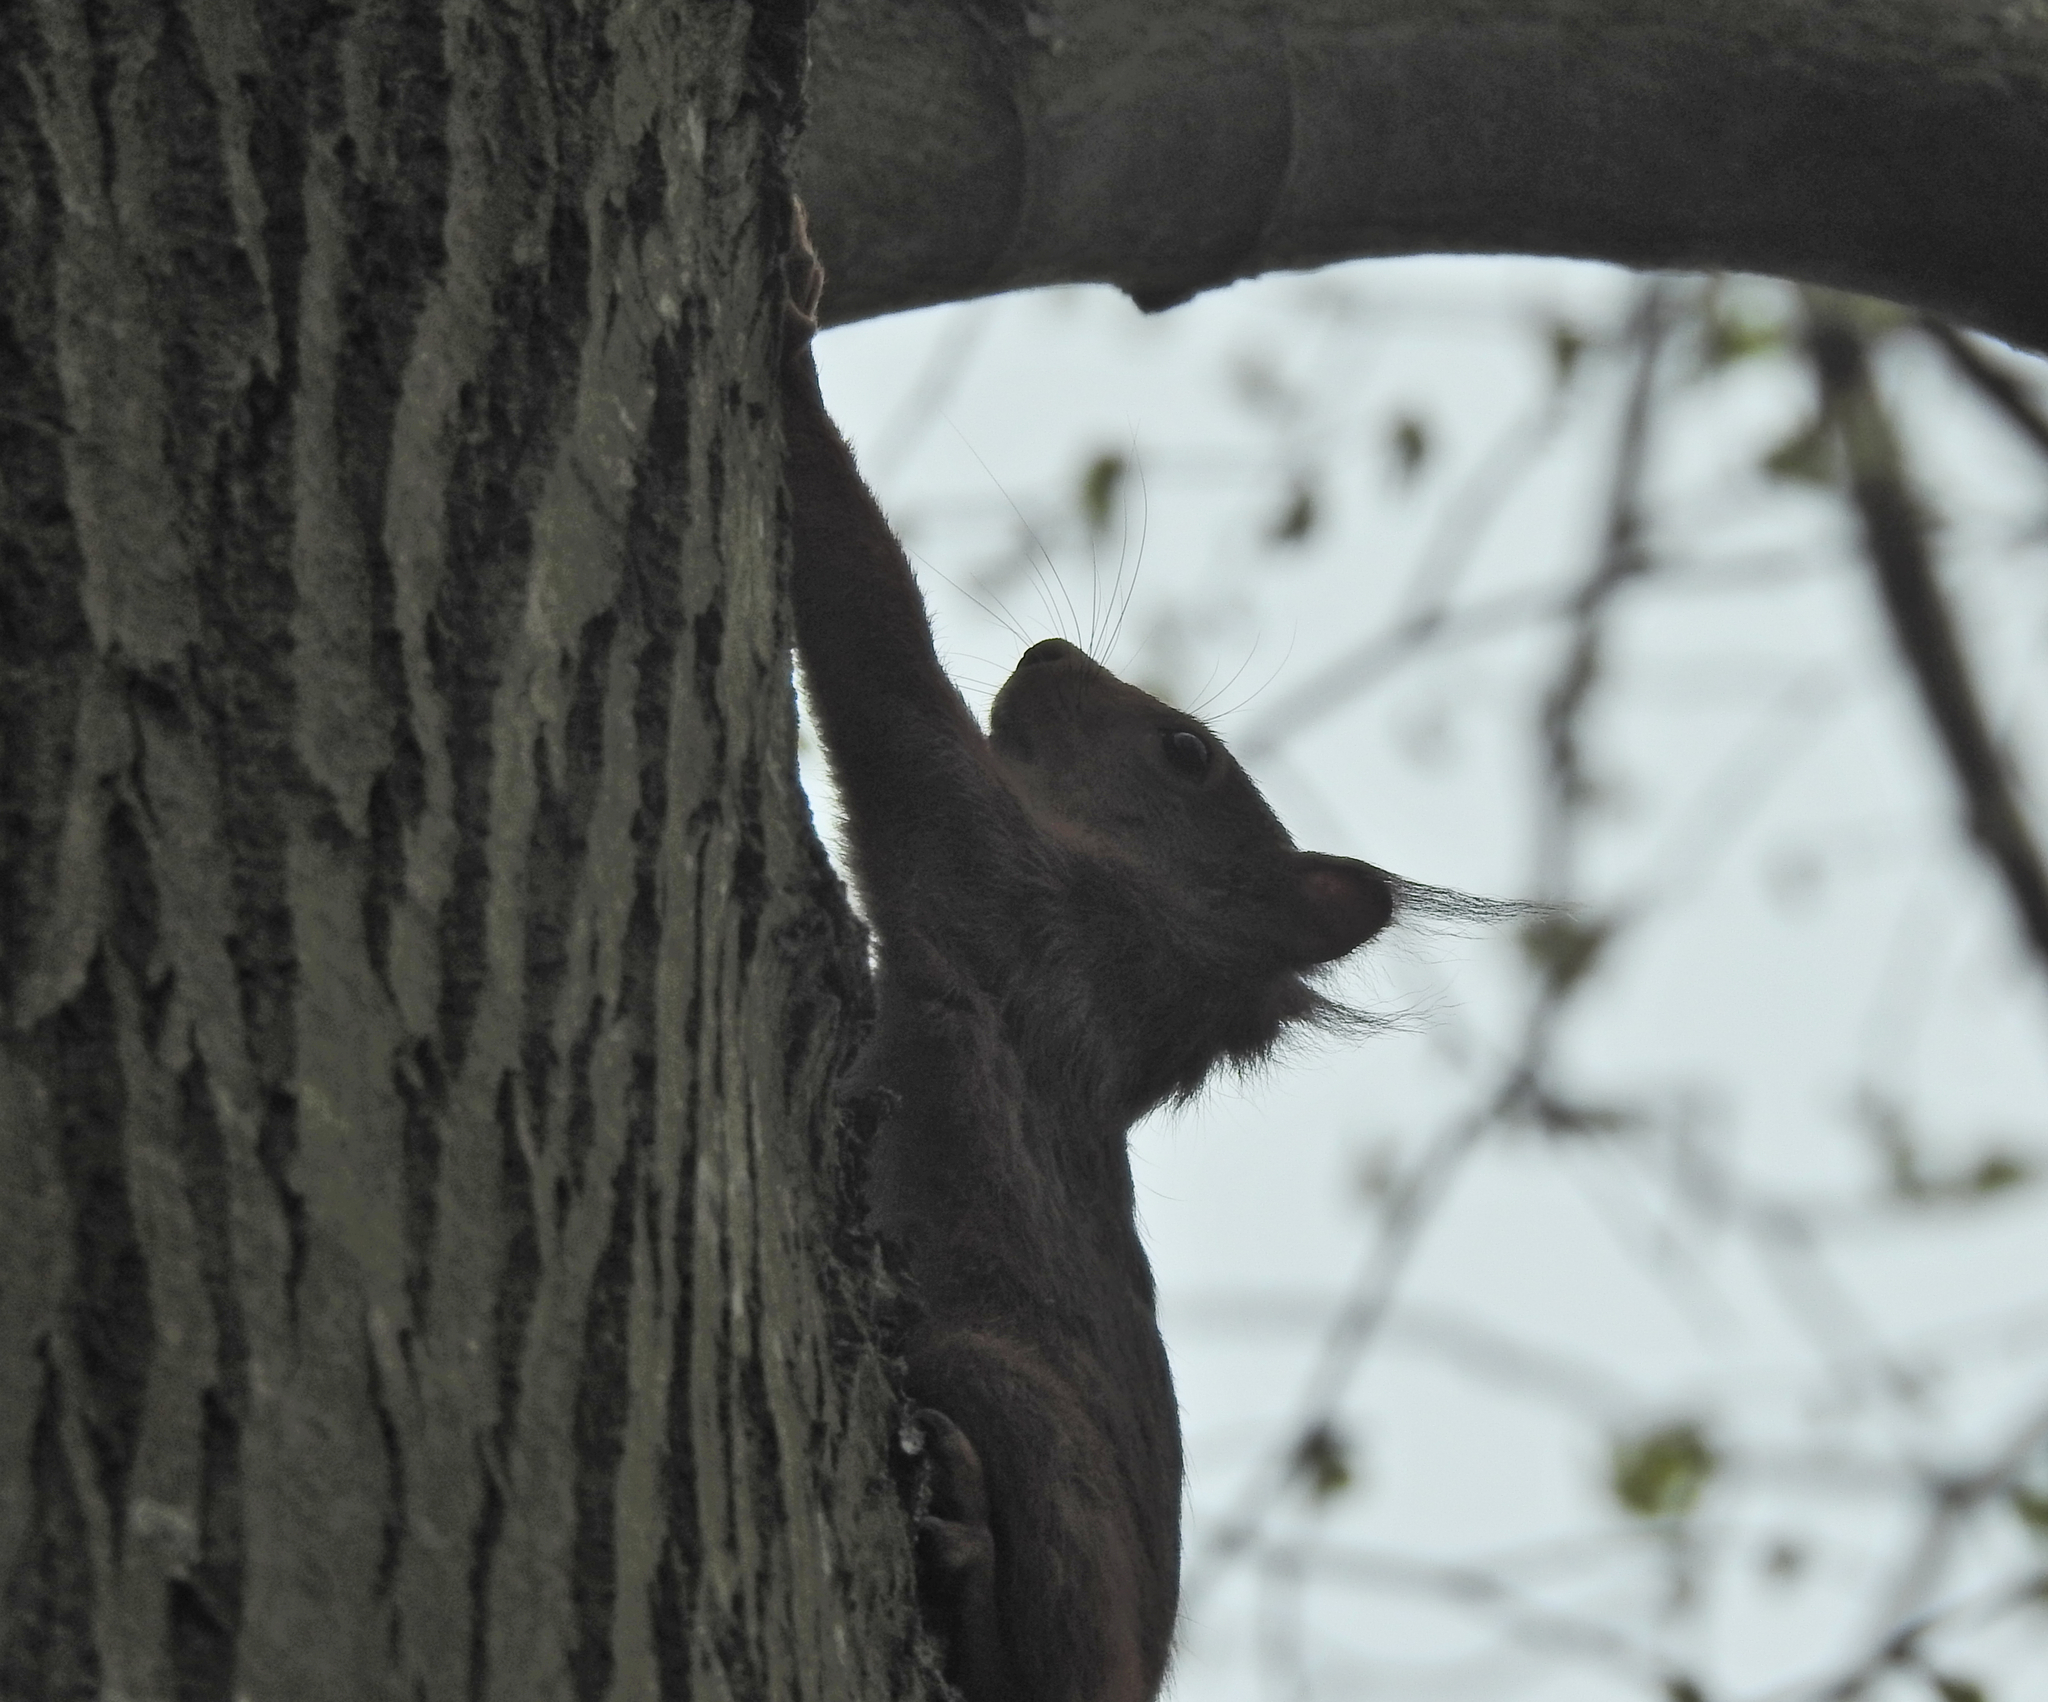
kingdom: Animalia
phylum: Chordata
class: Mammalia
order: Rodentia
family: Sciuridae
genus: Sciurus
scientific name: Sciurus vulgaris
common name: Eurasian red squirrel
